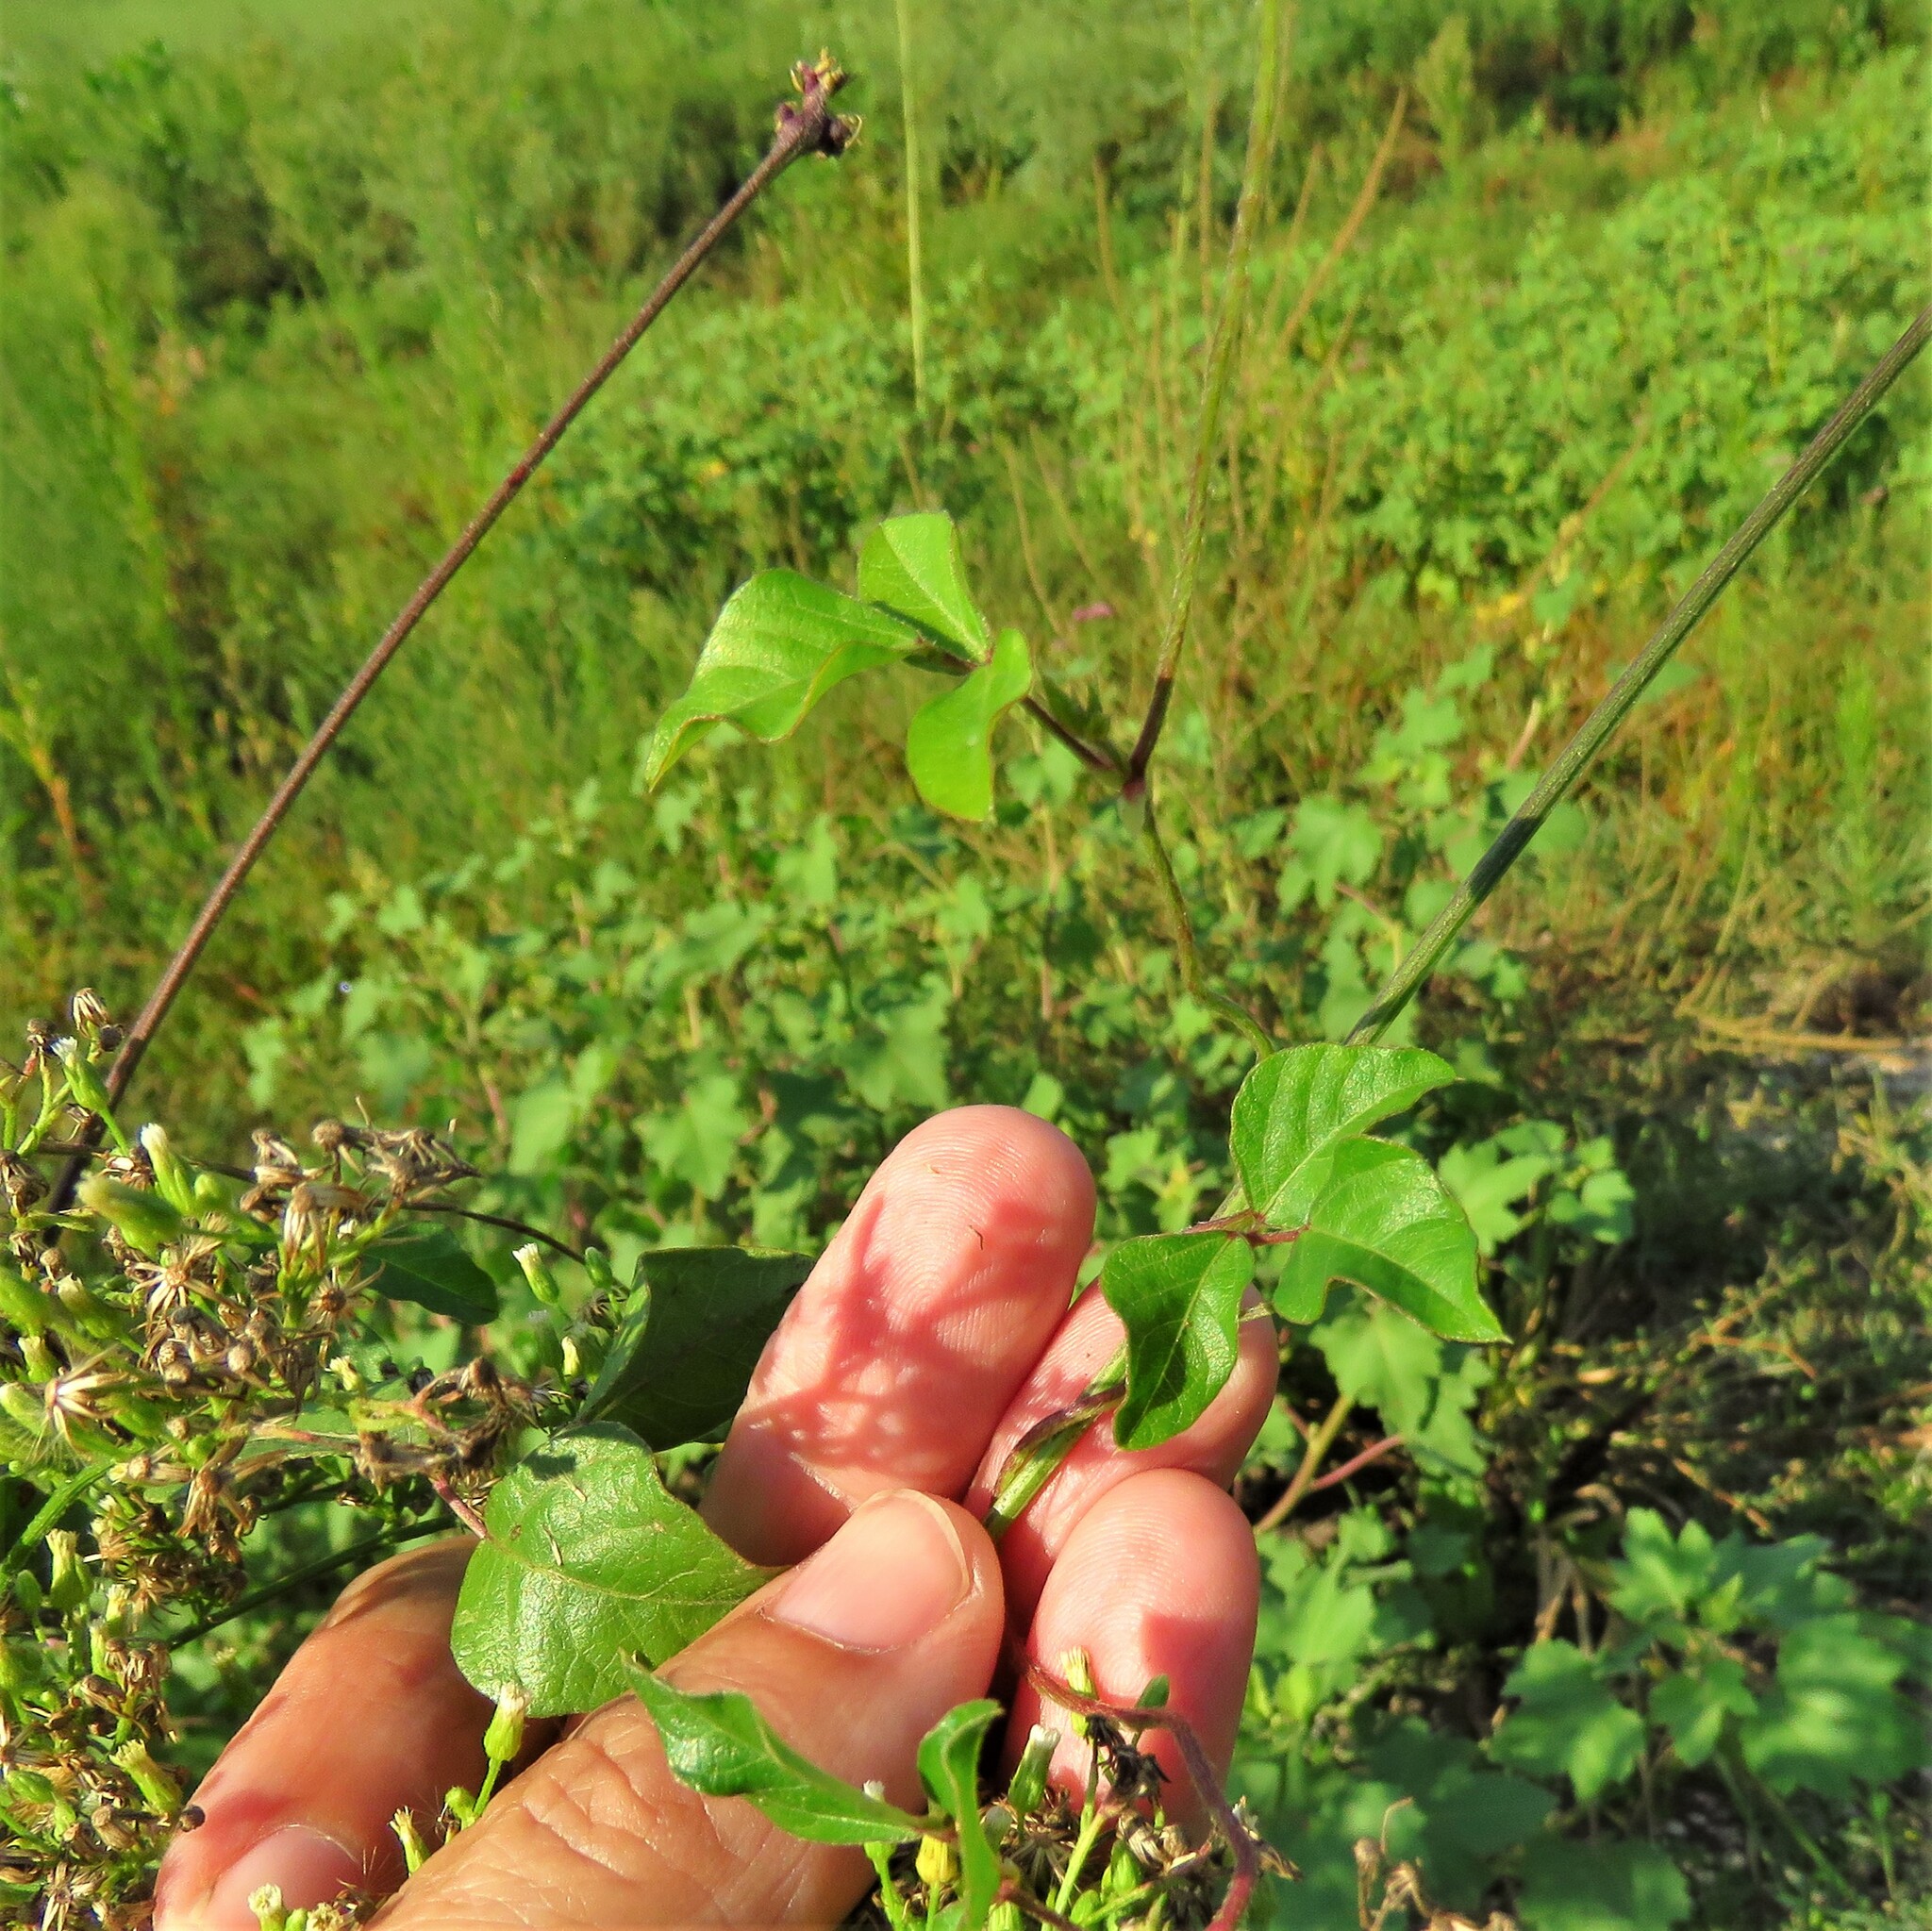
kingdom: Plantae
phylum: Tracheophyta
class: Magnoliopsida
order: Fabales
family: Fabaceae
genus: Strophostyles
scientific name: Strophostyles helvola
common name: Trailing wild bean
